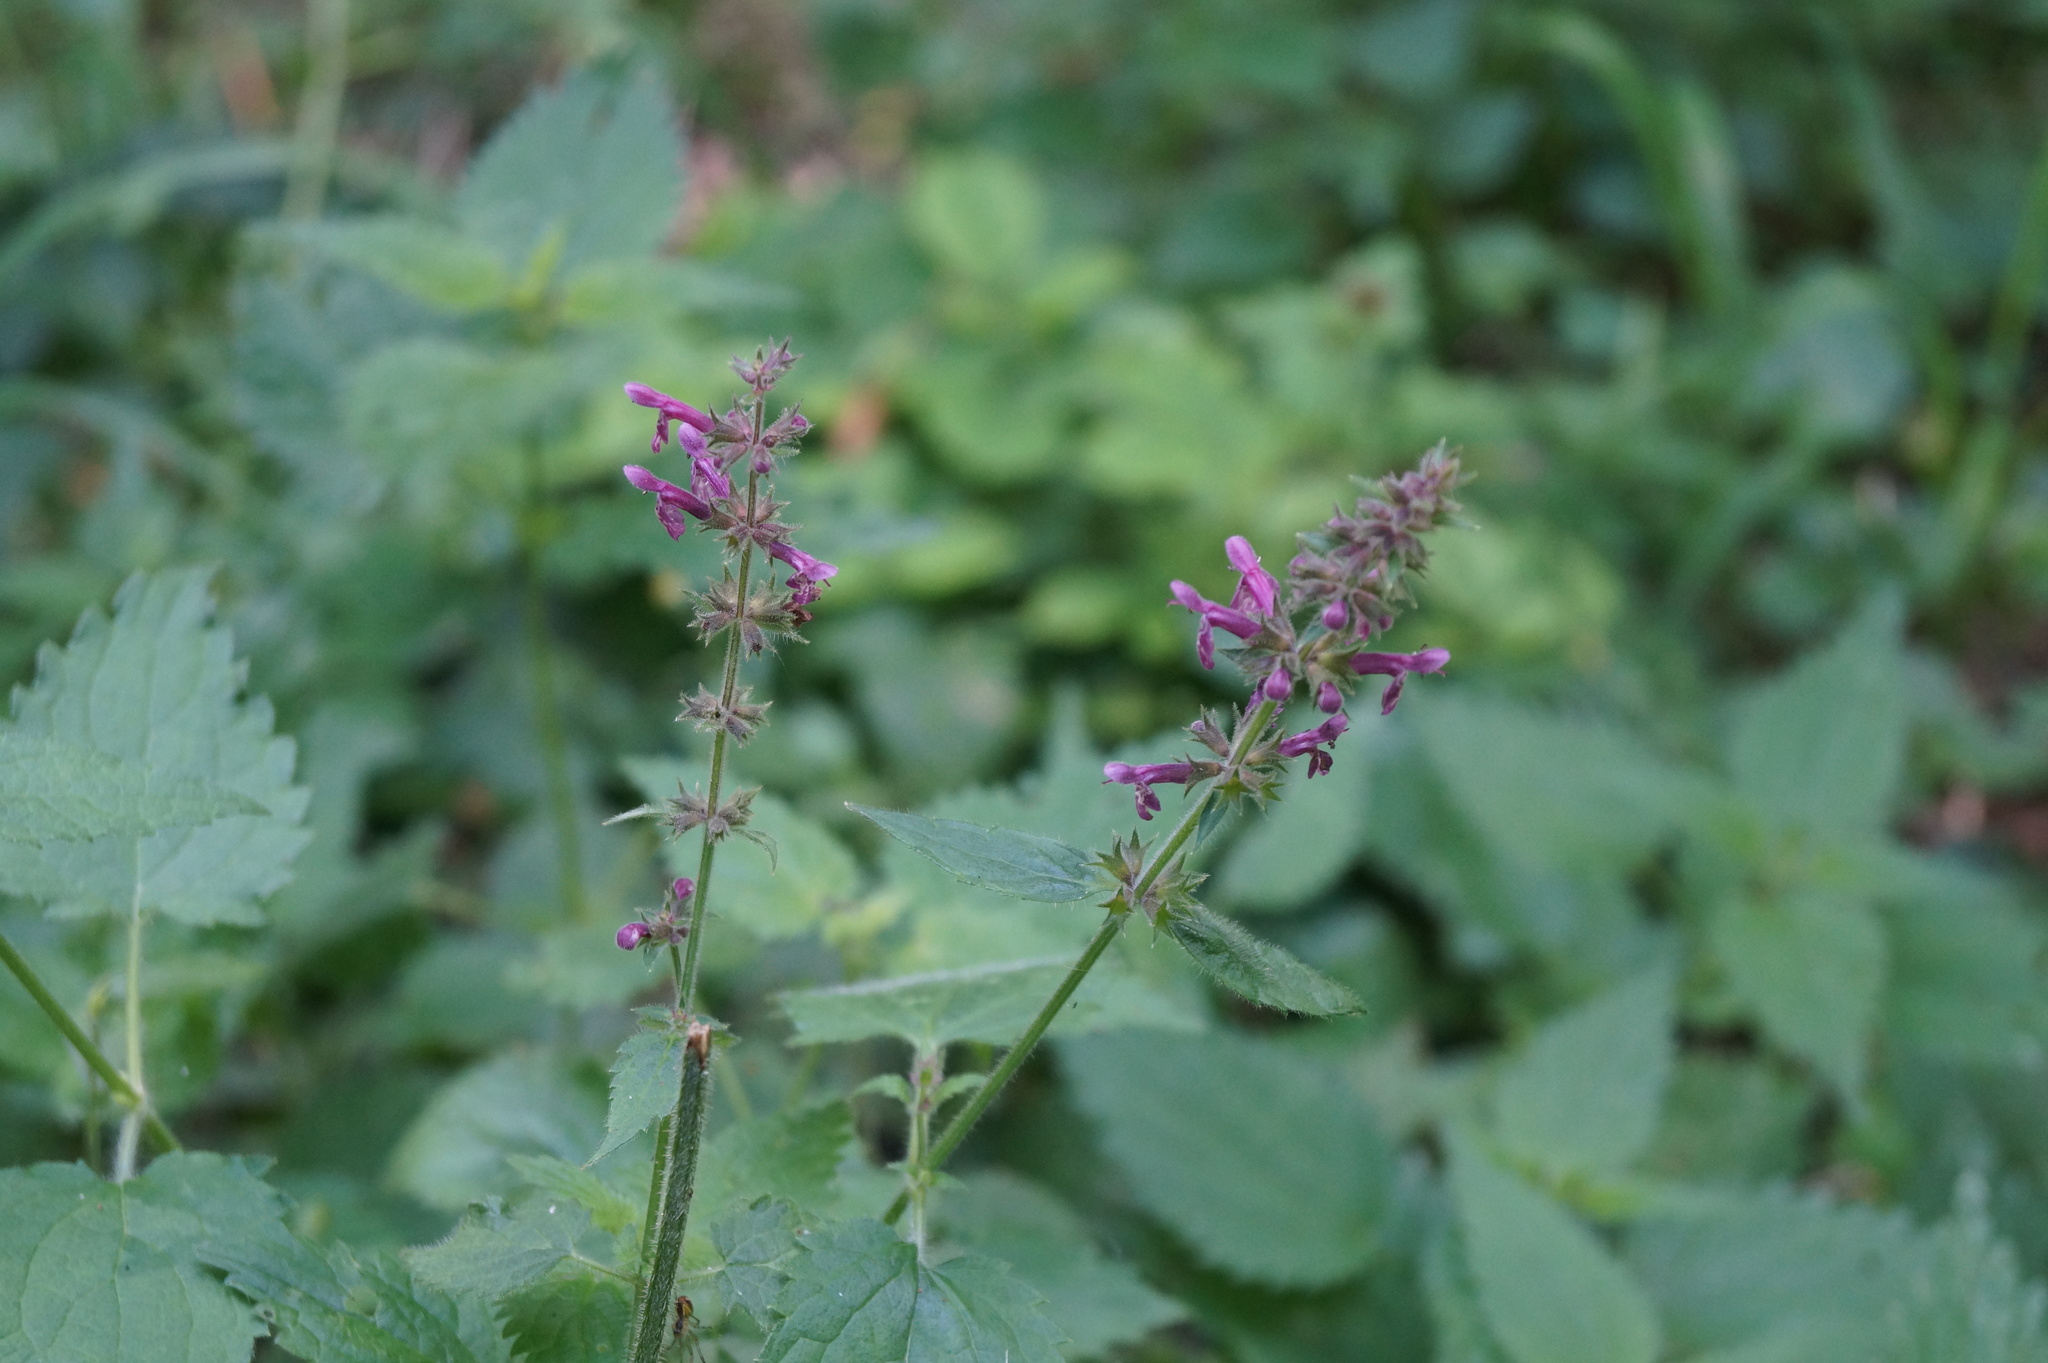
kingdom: Plantae
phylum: Tracheophyta
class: Magnoliopsida
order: Lamiales
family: Lamiaceae
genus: Stachys
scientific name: Stachys sylvatica
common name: Hedge woundwort
